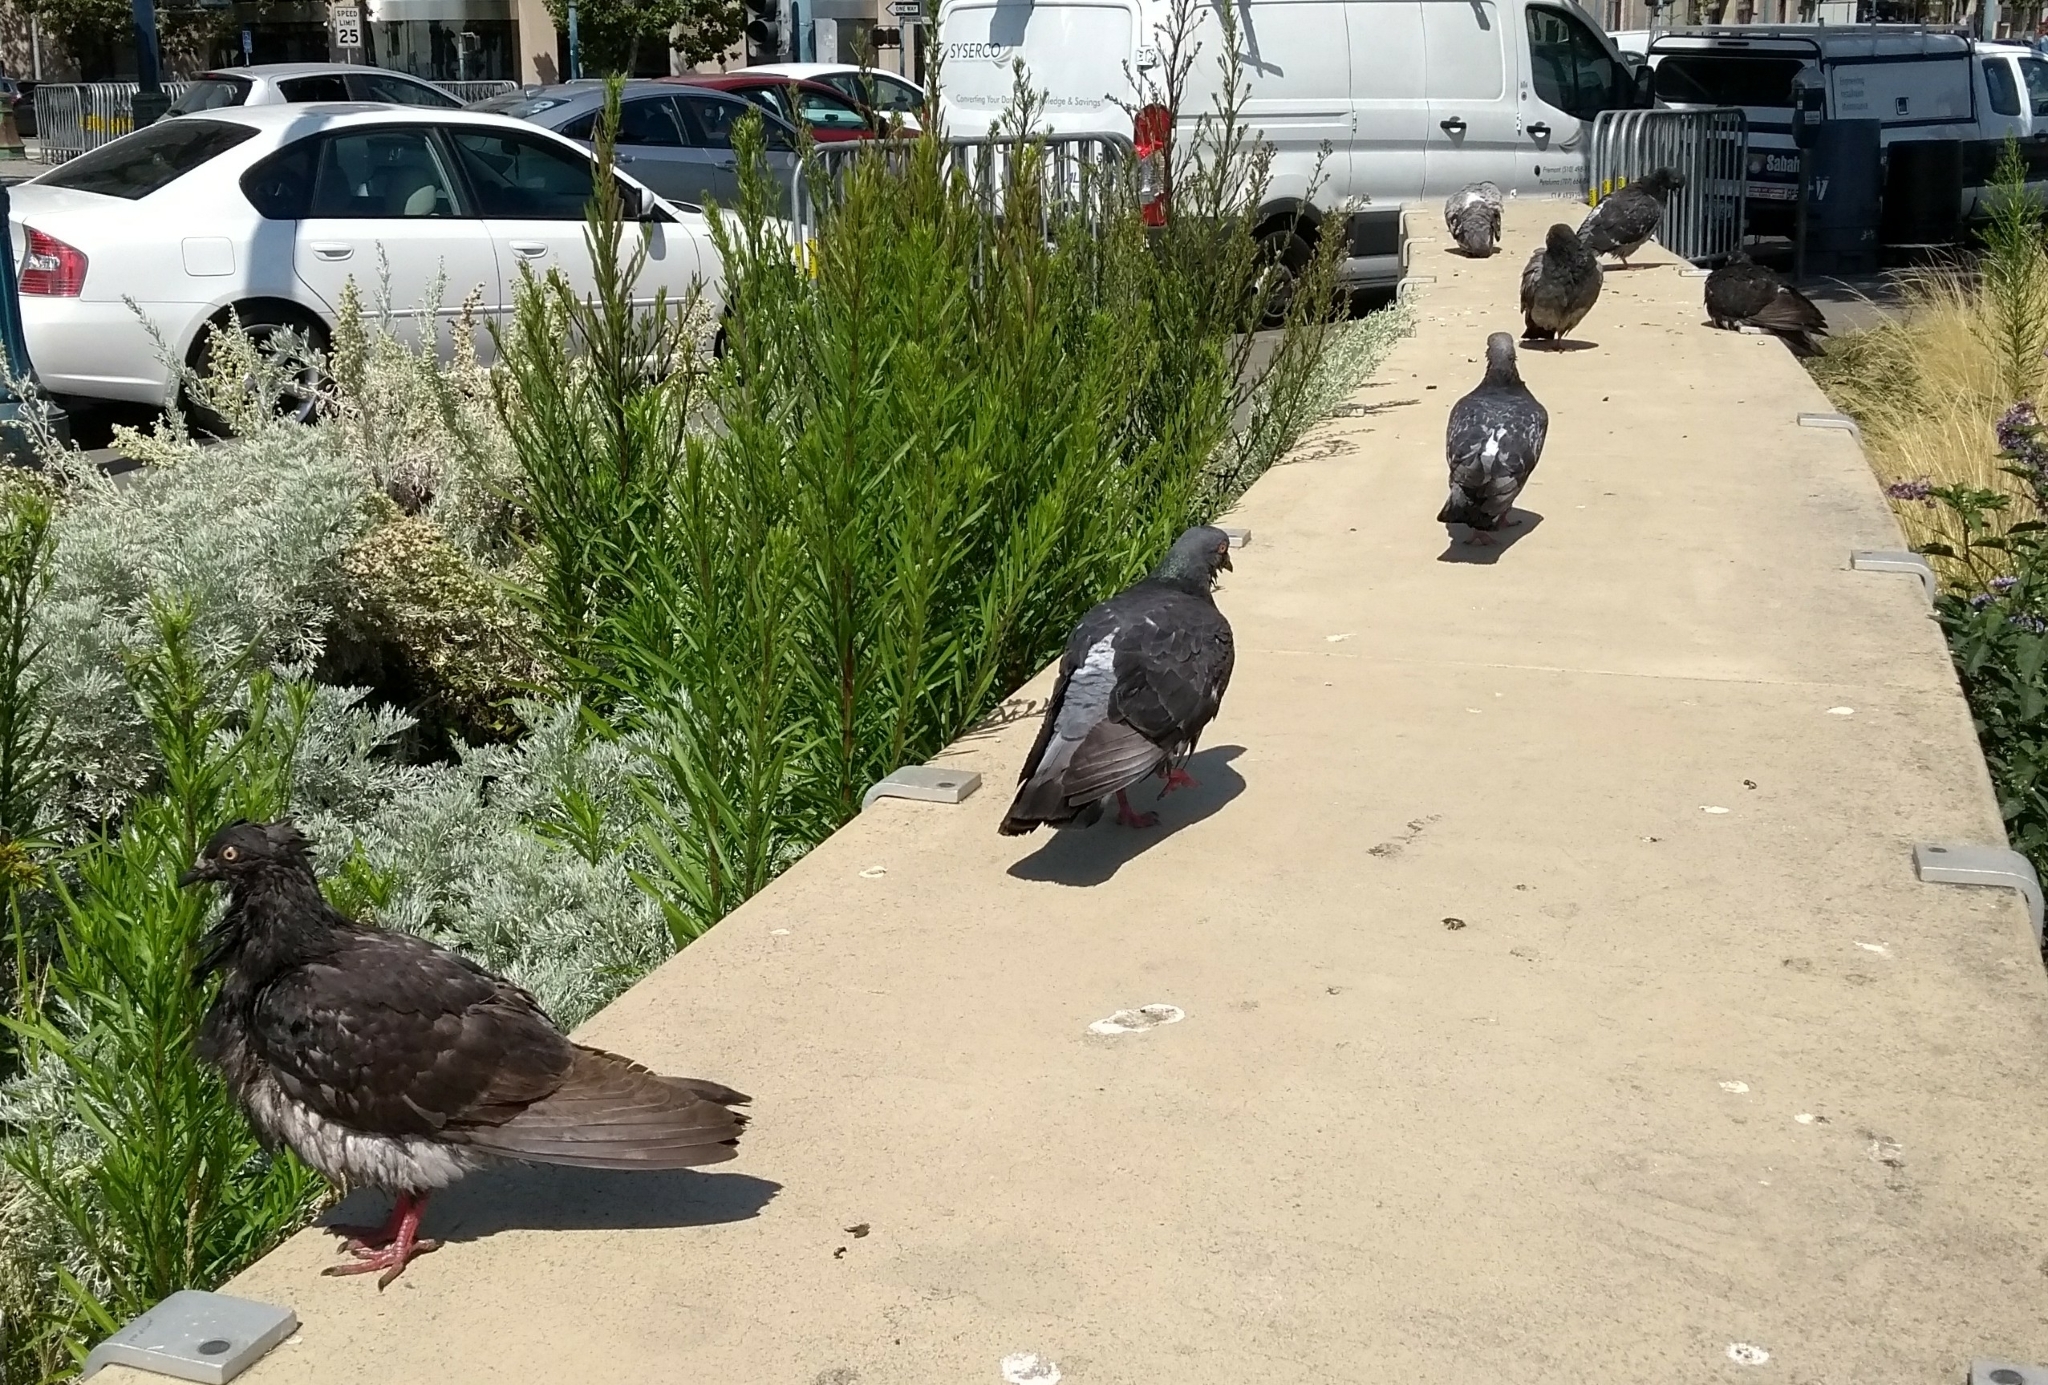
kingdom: Animalia
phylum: Chordata
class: Aves
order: Columbiformes
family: Columbidae
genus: Columba
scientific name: Columba livia
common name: Rock pigeon
